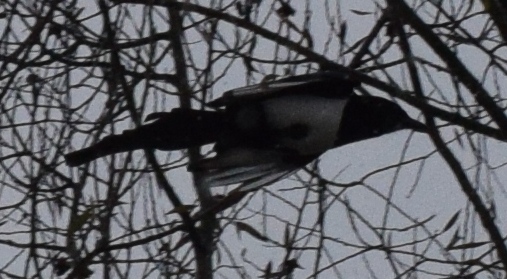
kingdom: Animalia
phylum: Chordata
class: Aves
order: Passeriformes
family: Corvidae
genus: Pica
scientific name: Pica pica
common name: Eurasian magpie
